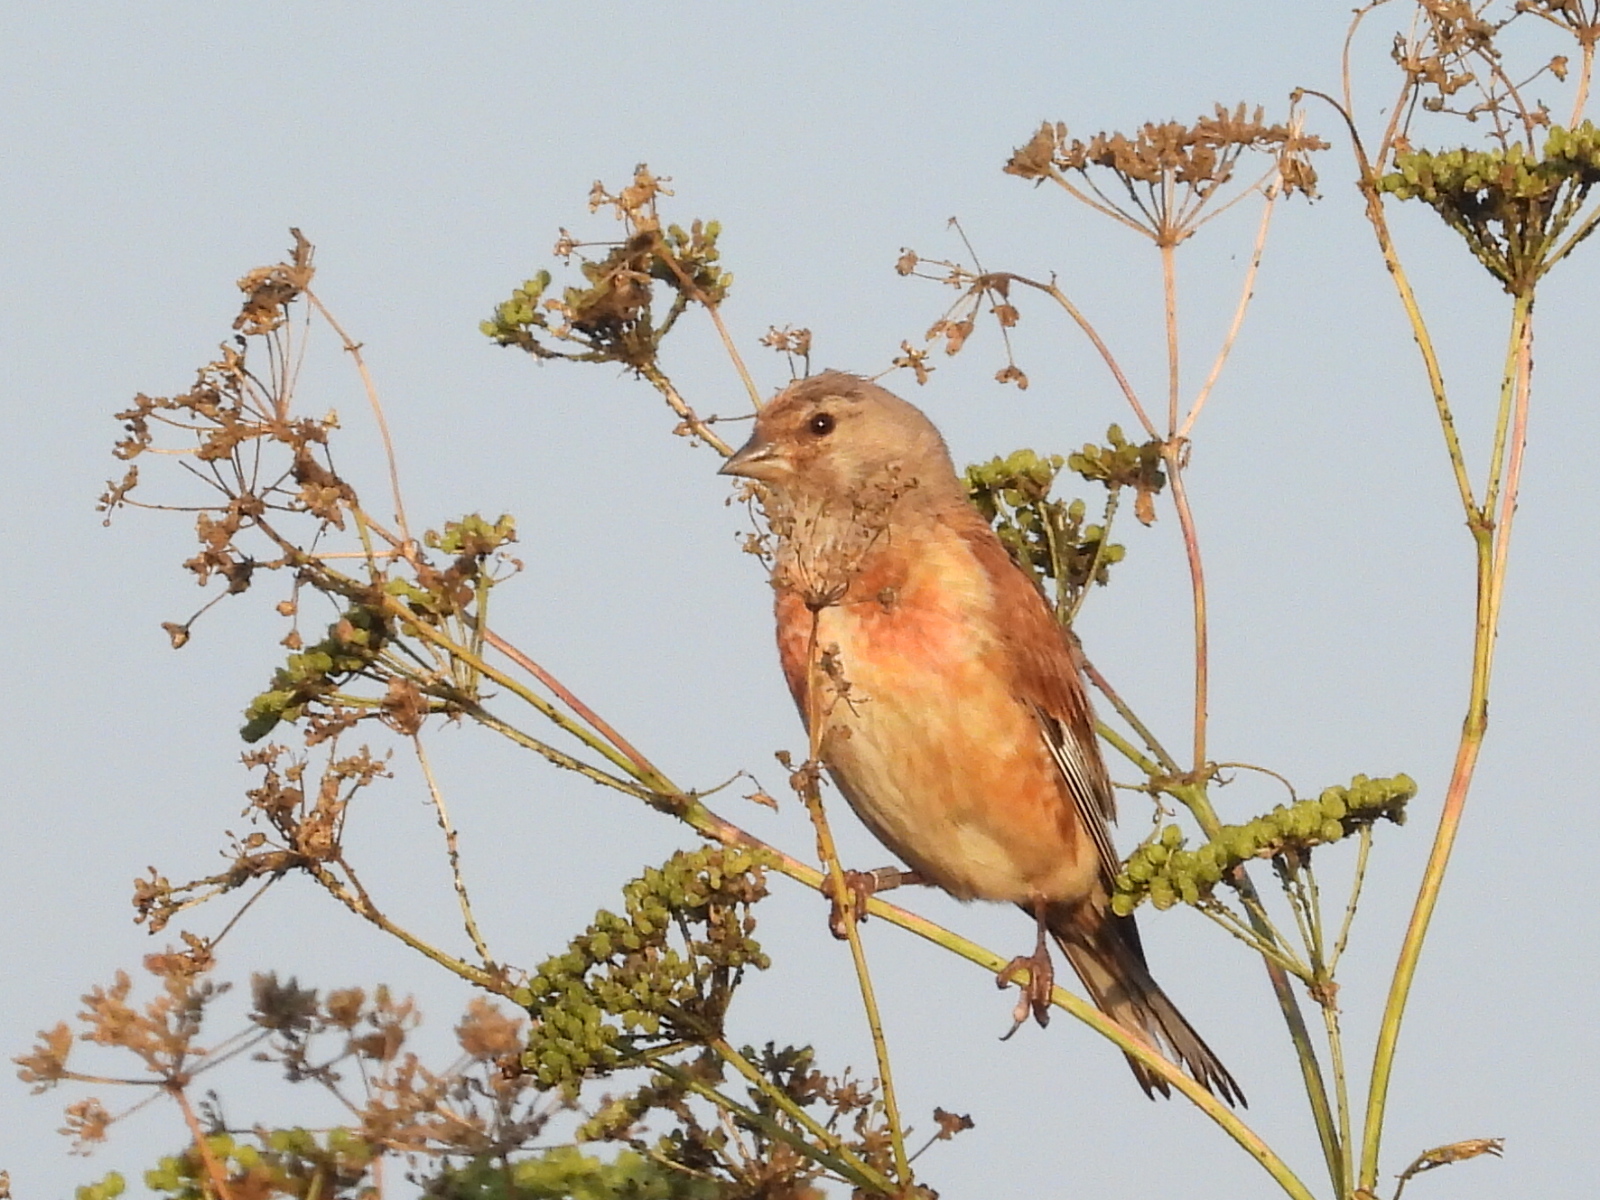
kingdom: Animalia
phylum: Chordata
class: Aves
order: Passeriformes
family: Fringillidae
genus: Linaria
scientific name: Linaria cannabina
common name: Common linnet
